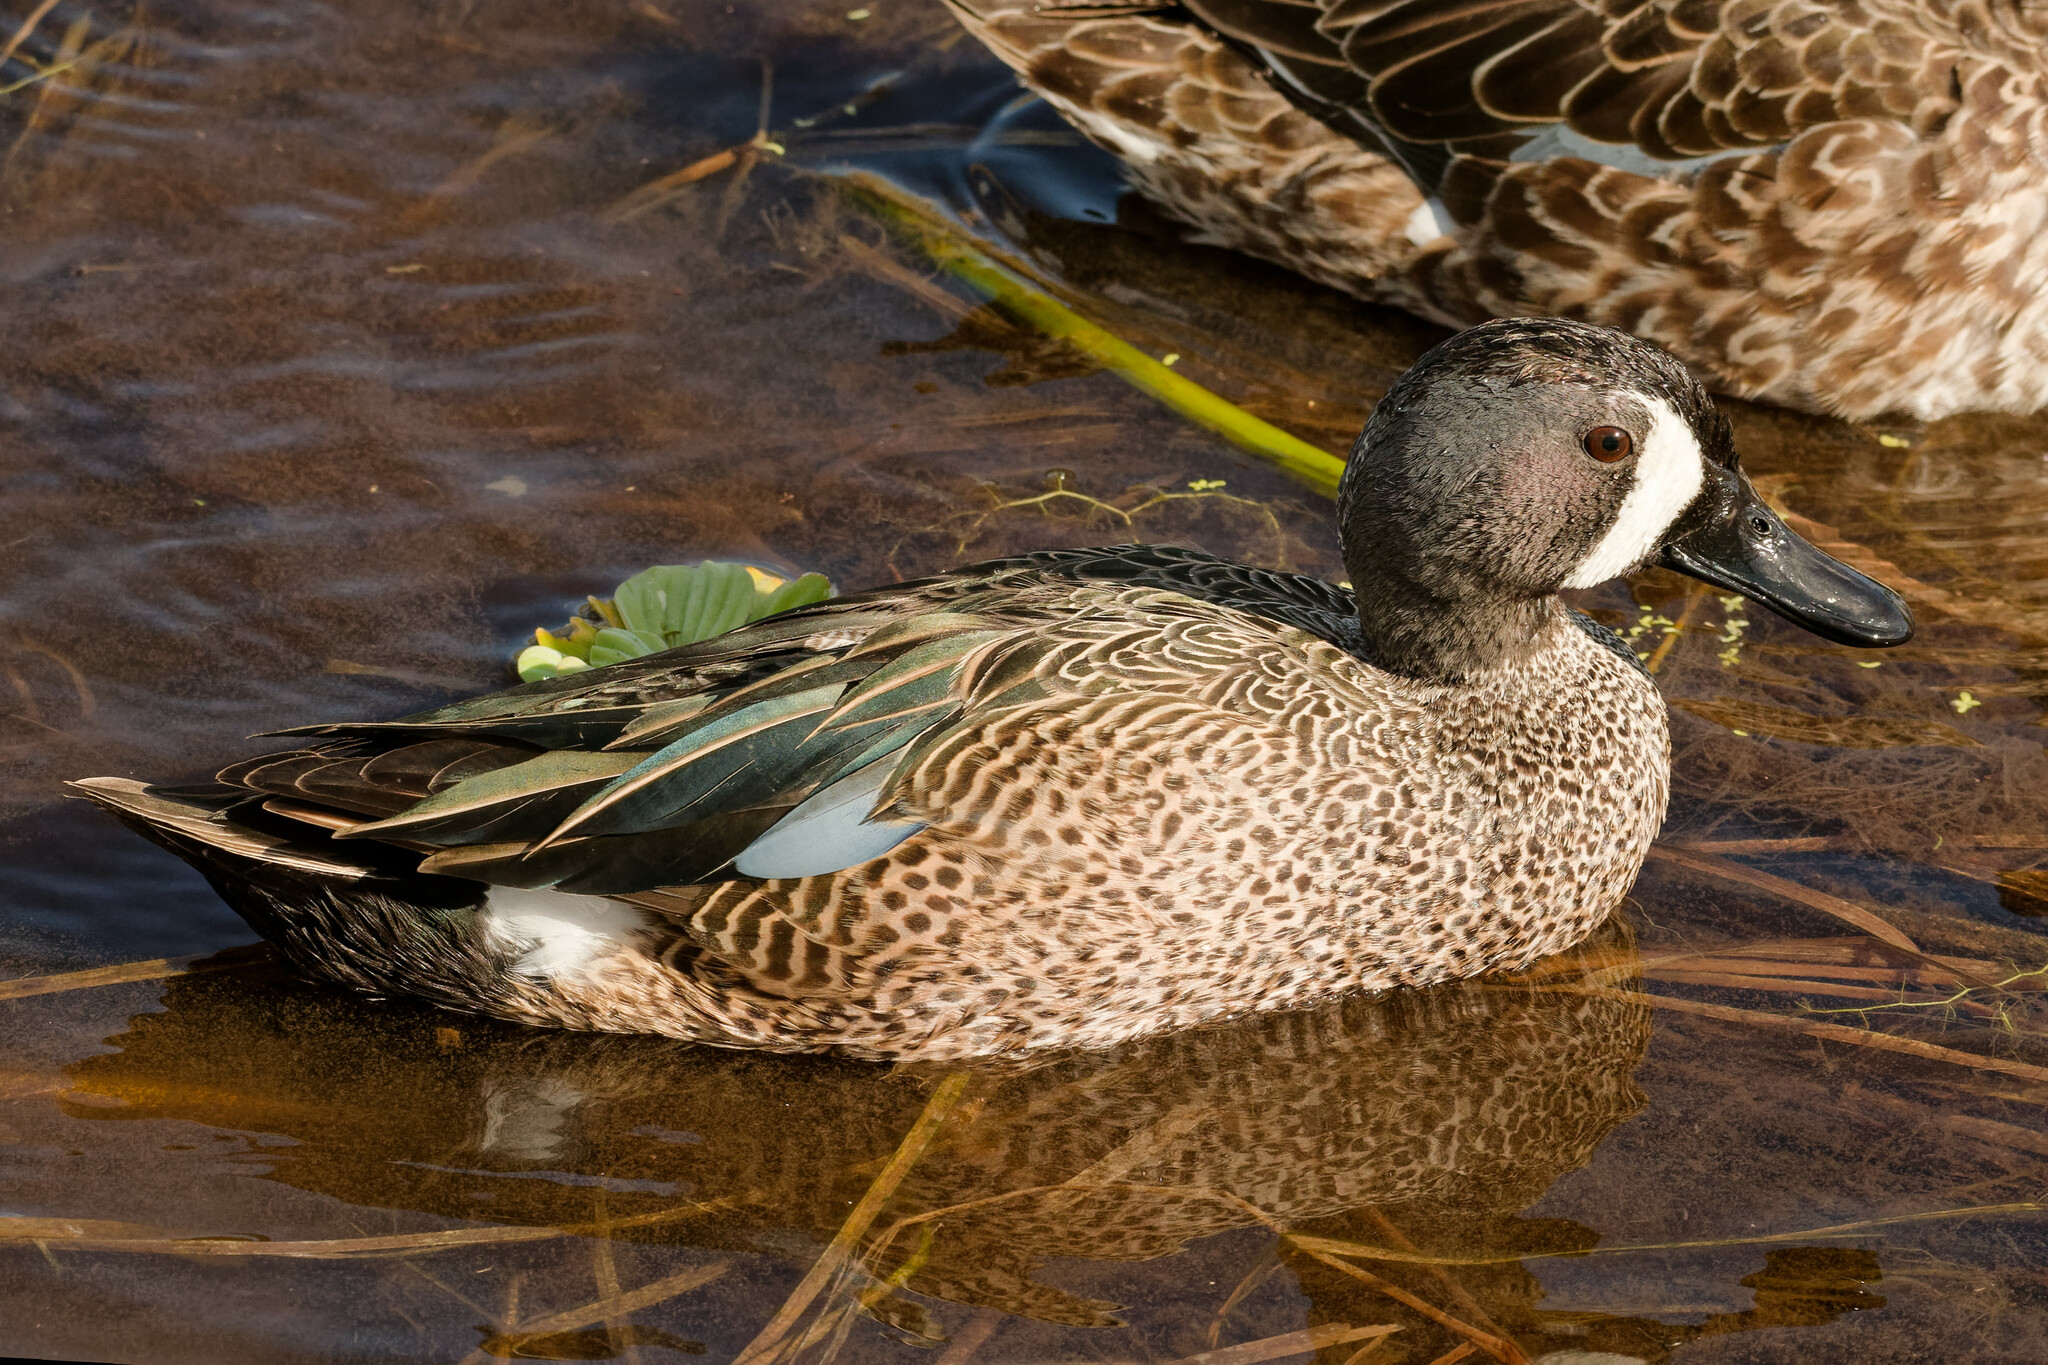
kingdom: Animalia
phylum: Chordata
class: Aves
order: Anseriformes
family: Anatidae
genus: Spatula
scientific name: Spatula discors
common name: Blue-winged teal
